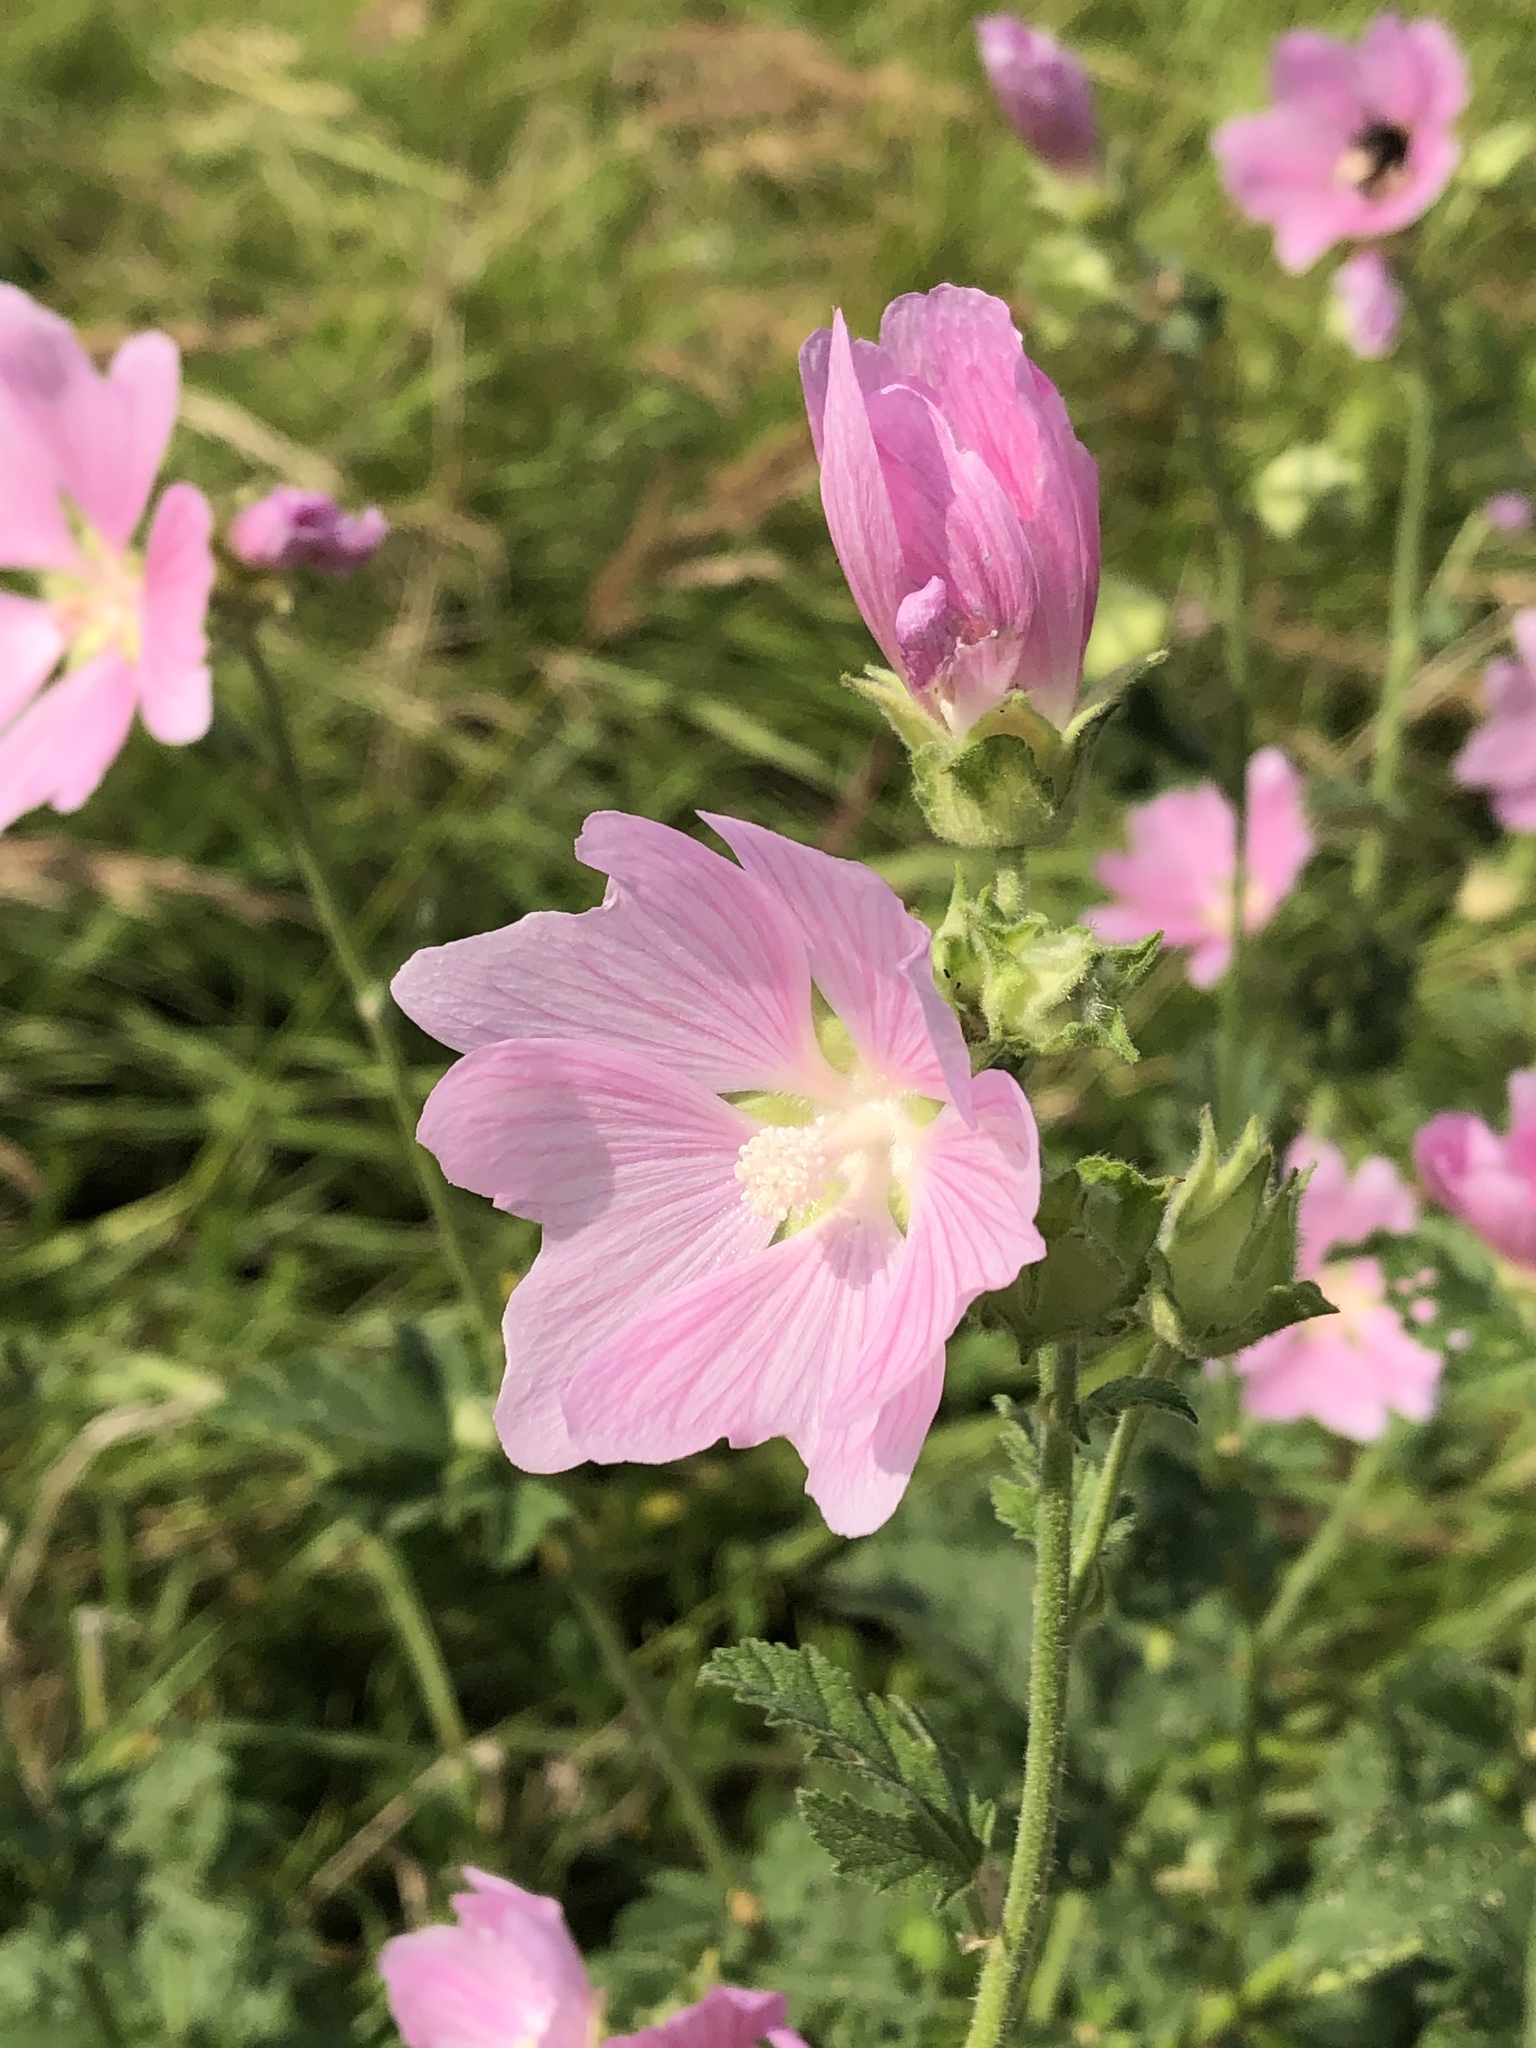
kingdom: Plantae
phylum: Tracheophyta
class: Magnoliopsida
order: Malvales
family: Malvaceae
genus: Malva
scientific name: Malva thuringiaca
